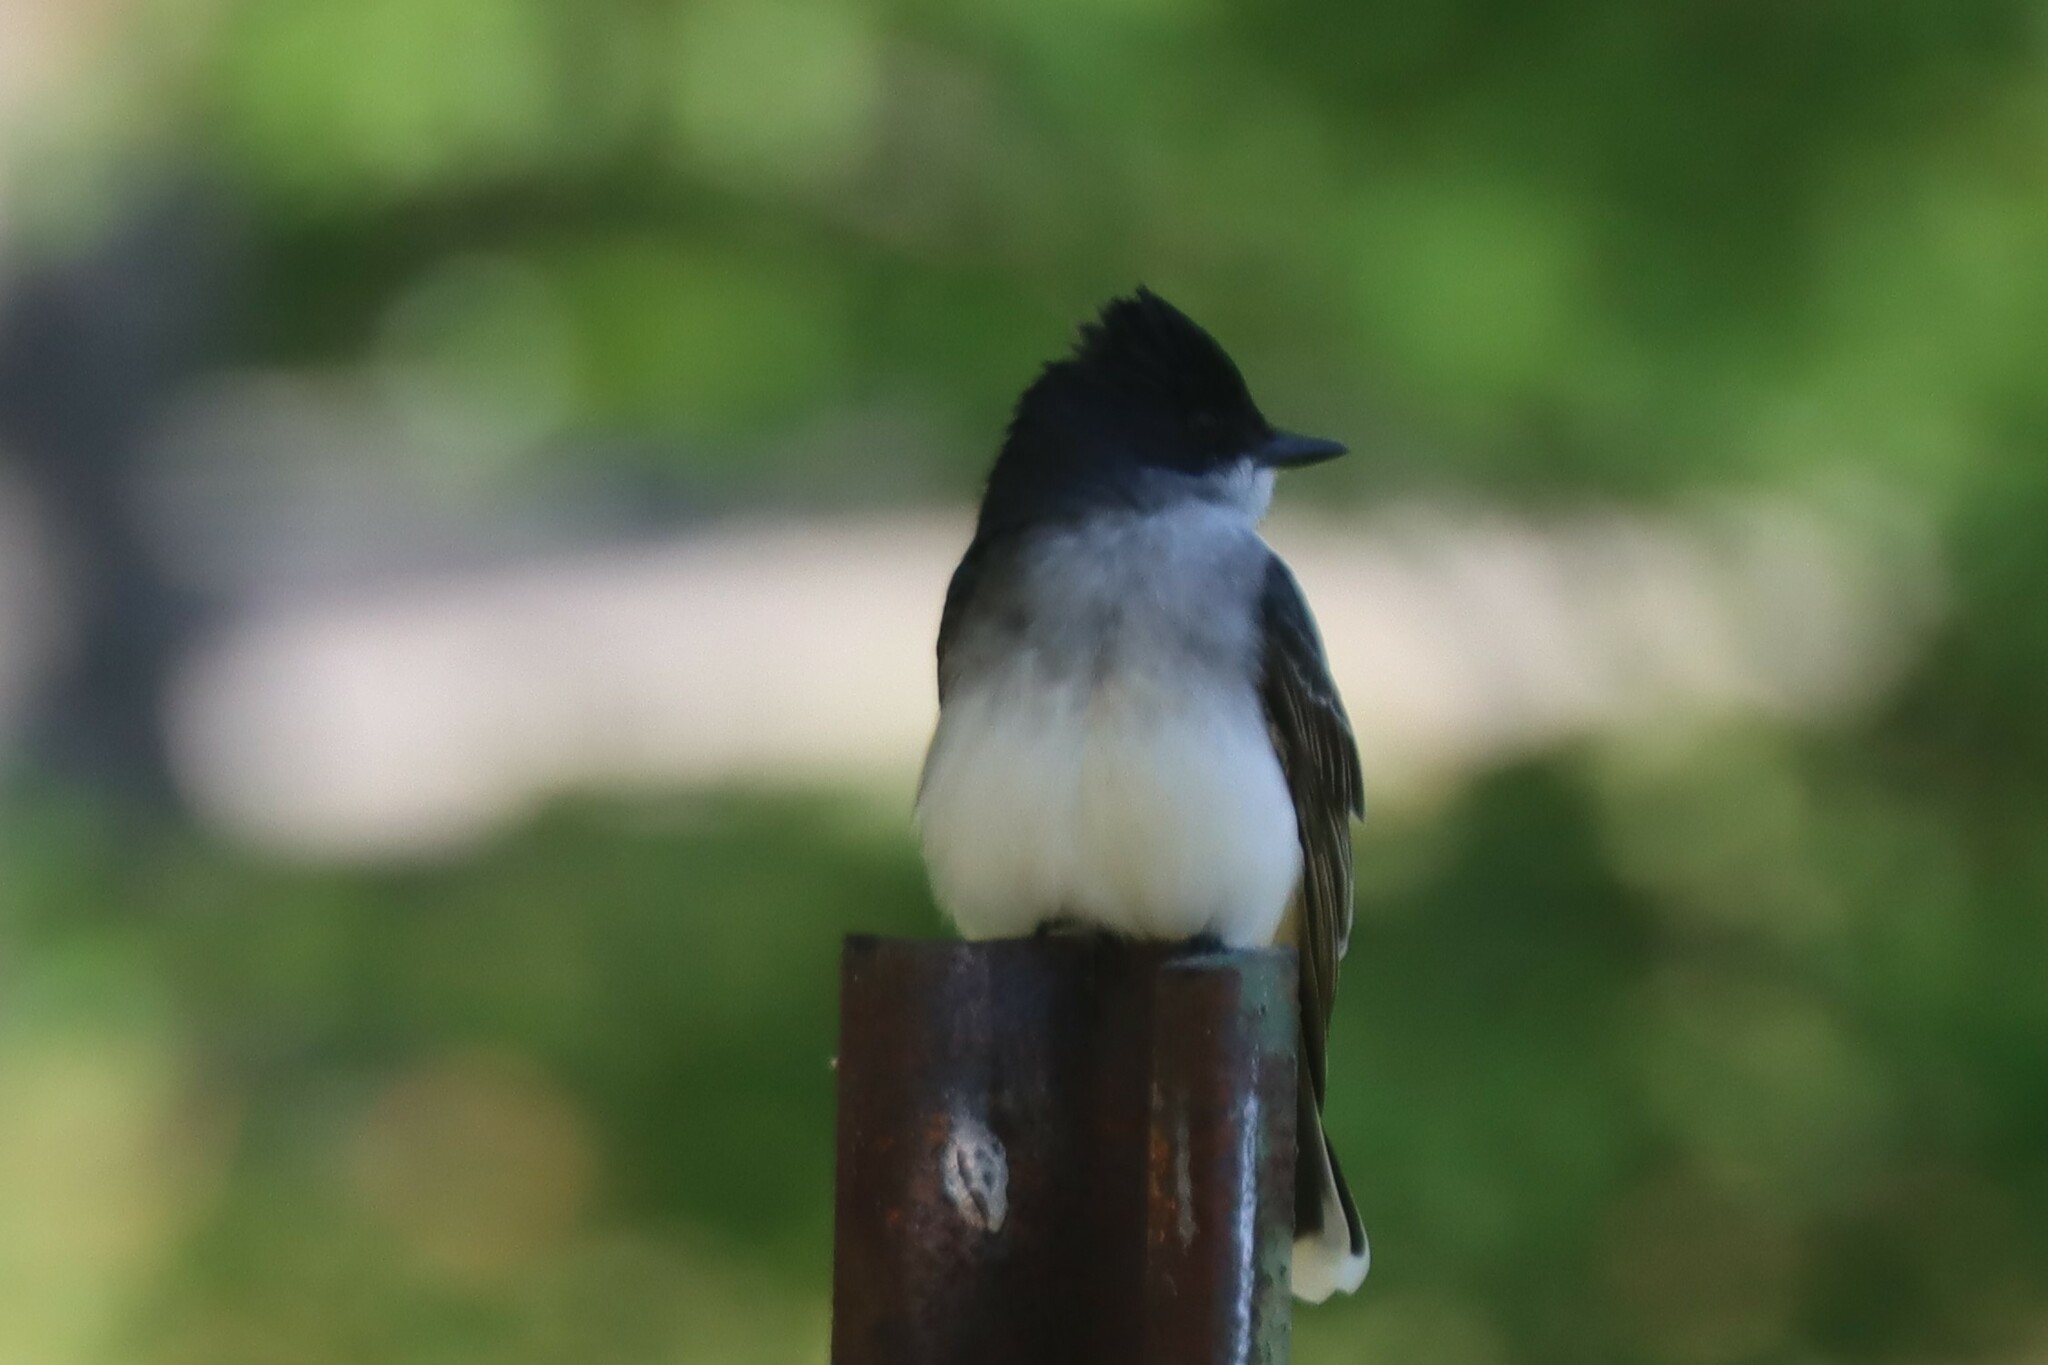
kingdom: Animalia
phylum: Chordata
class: Aves
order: Passeriformes
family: Tyrannidae
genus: Tyrannus
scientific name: Tyrannus tyrannus
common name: Eastern kingbird
